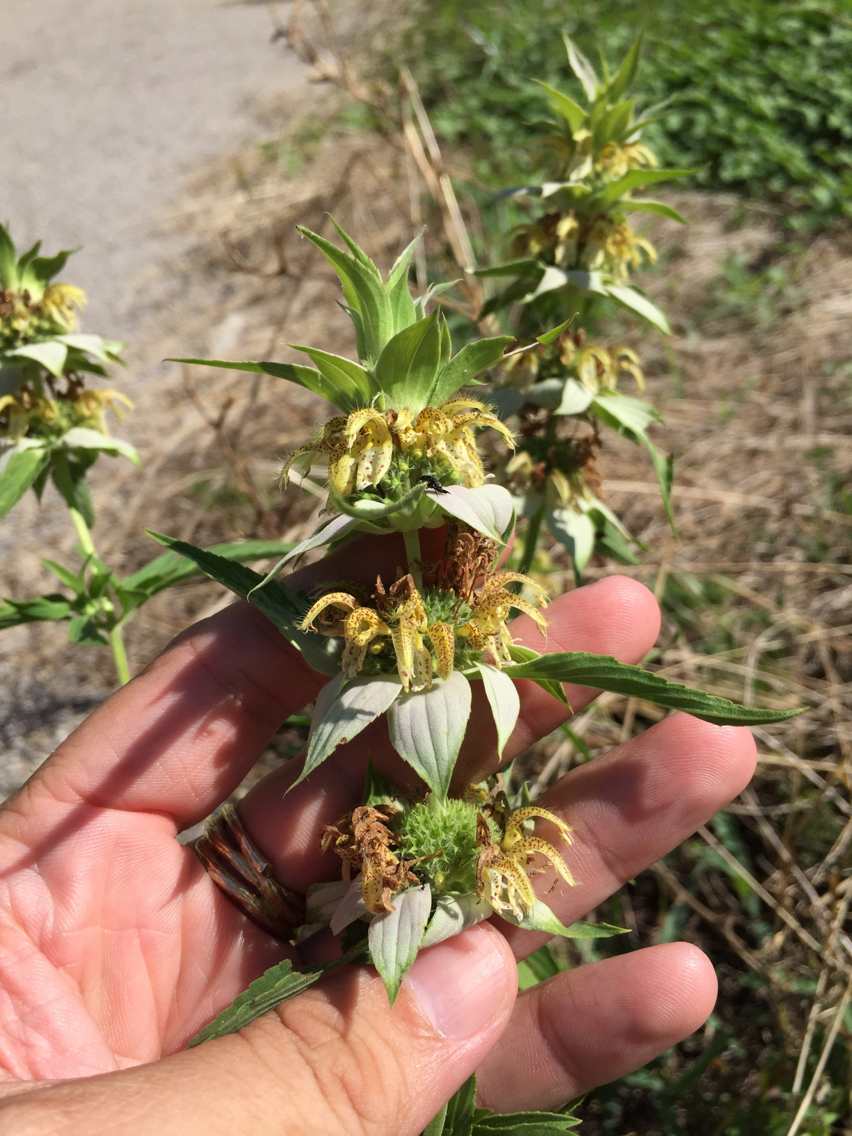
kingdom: Plantae
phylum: Tracheophyta
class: Magnoliopsida
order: Lamiales
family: Lamiaceae
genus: Monarda
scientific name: Monarda punctata
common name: Dotted monarda
